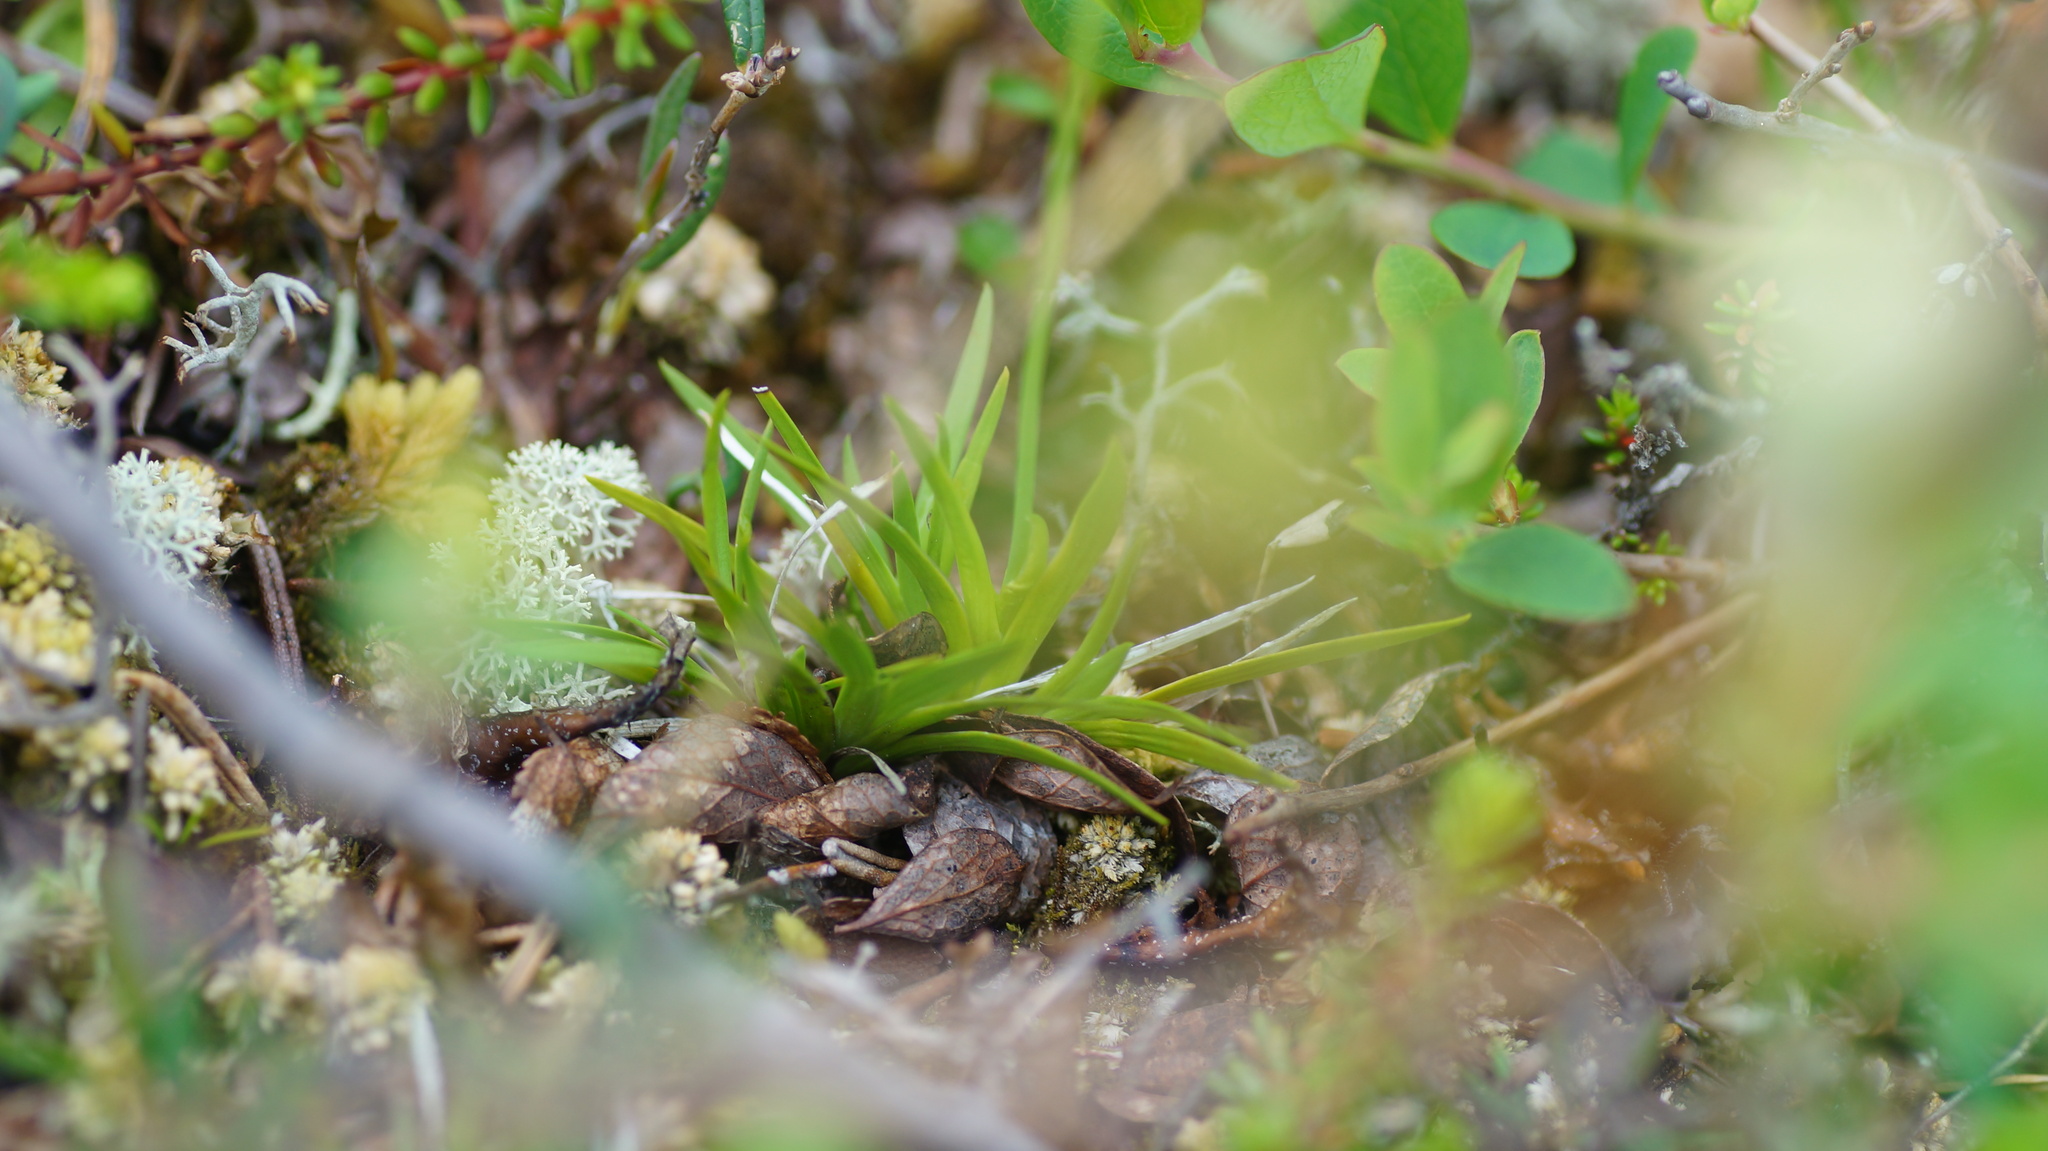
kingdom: Plantae
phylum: Tracheophyta
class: Liliopsida
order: Alismatales
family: Tofieldiaceae
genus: Tofieldia
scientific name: Tofieldia pusilla
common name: Scottish false asphodel
